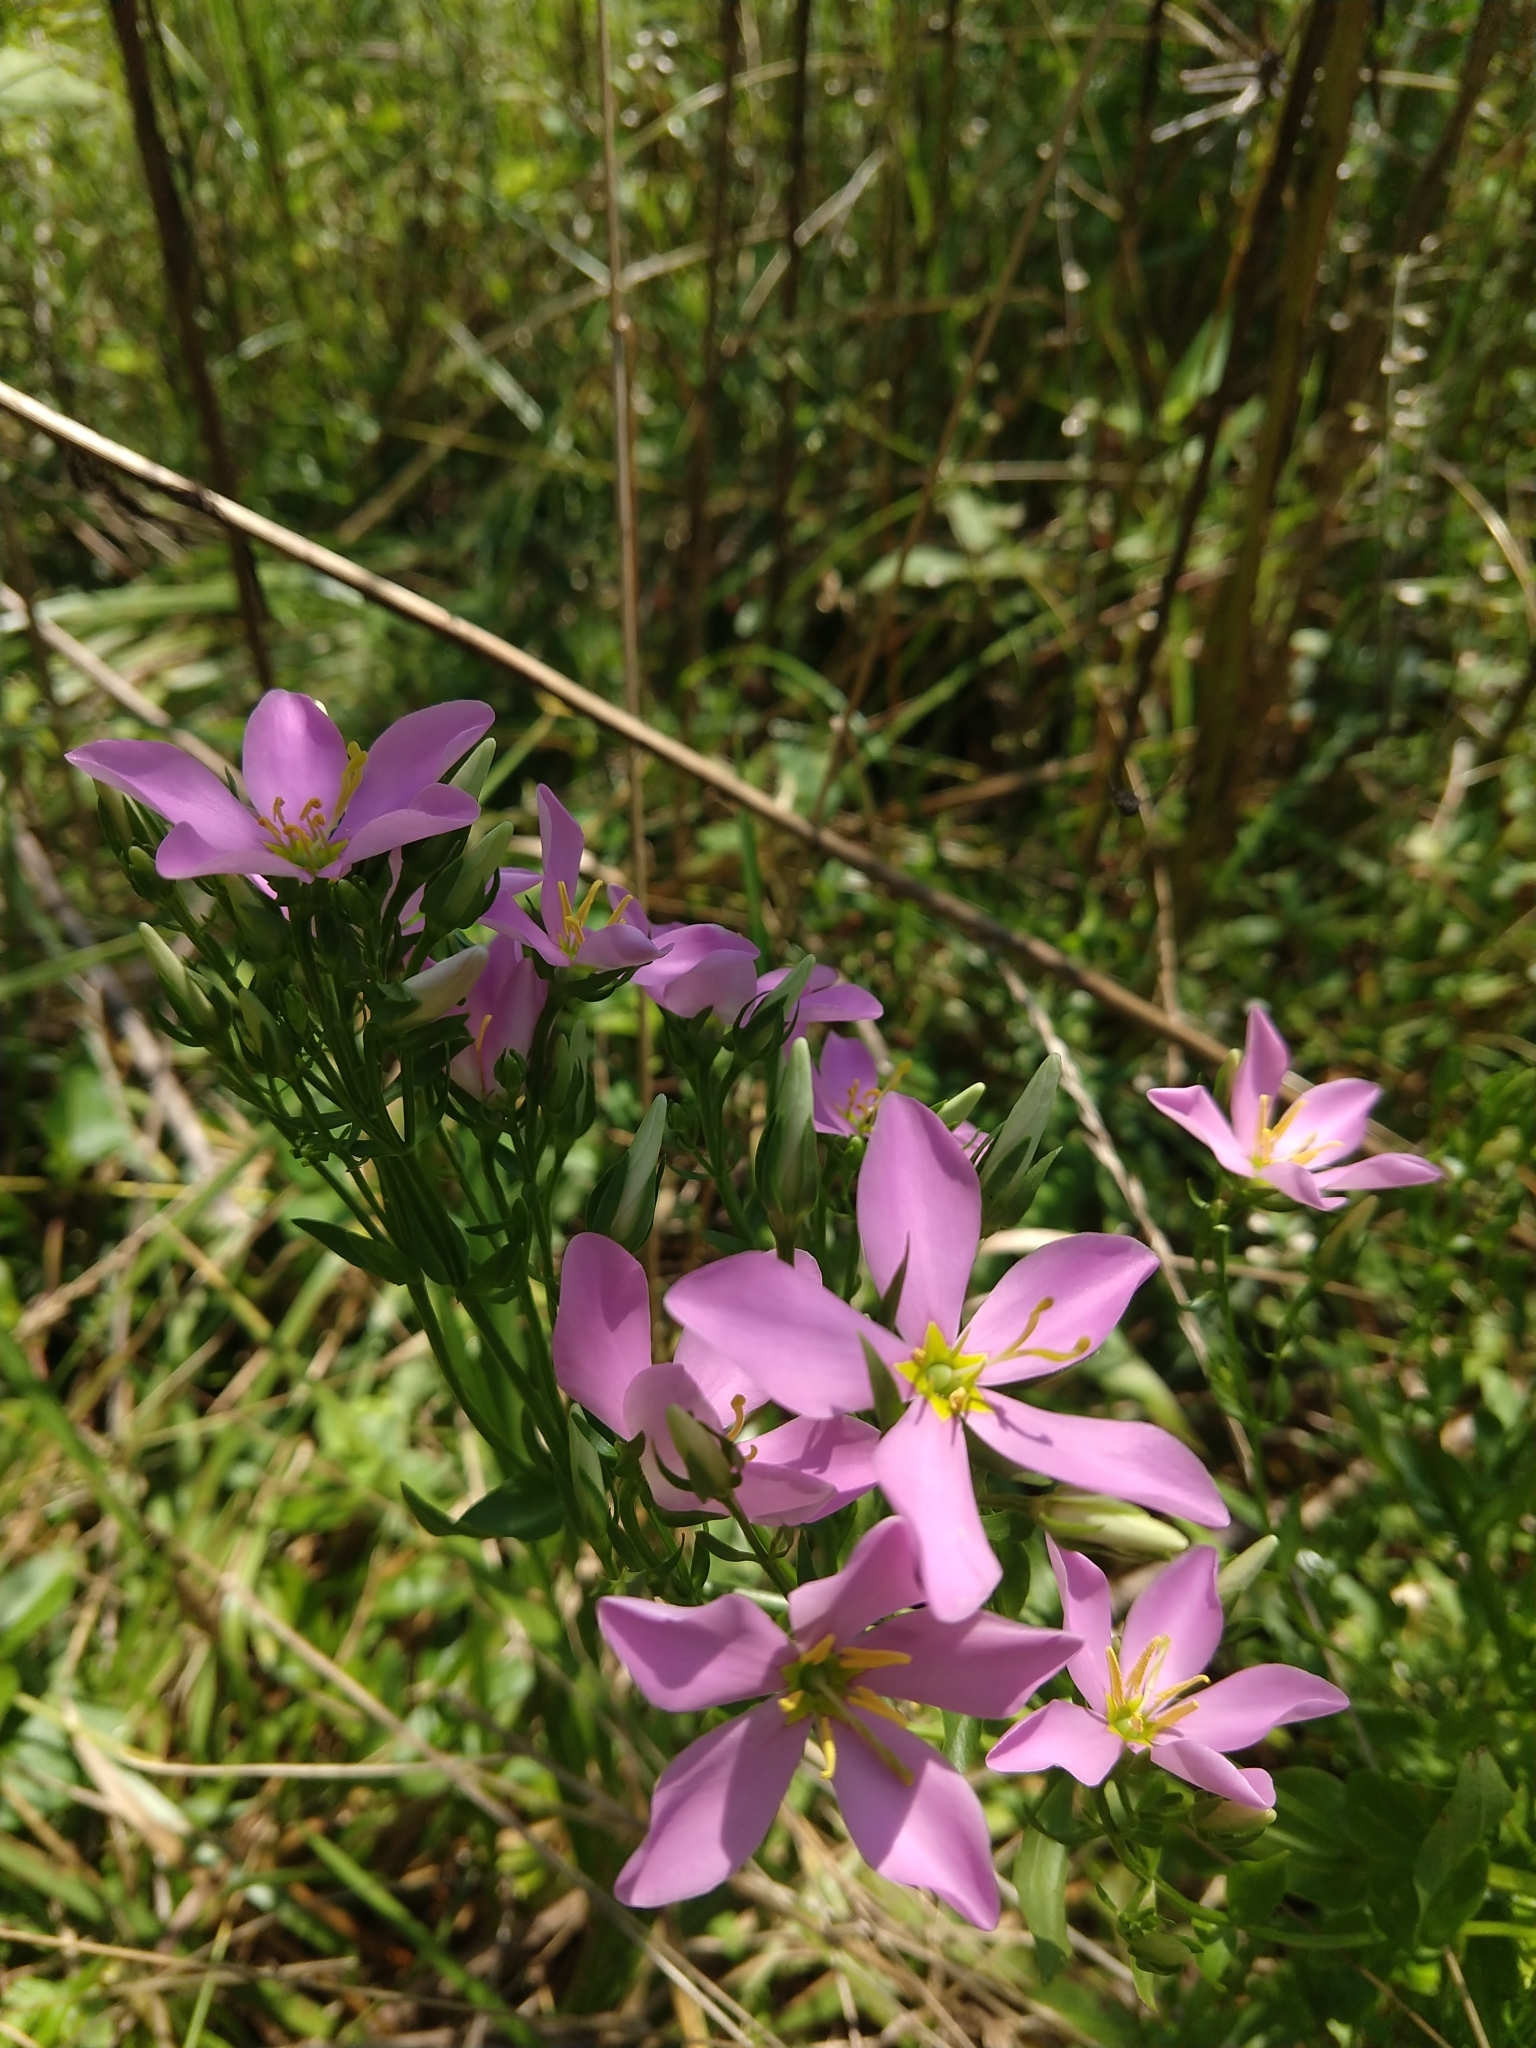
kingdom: Plantae
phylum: Tracheophyta
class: Magnoliopsida
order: Gentianales
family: Gentianaceae
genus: Sabatia
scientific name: Sabatia angularis
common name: Rose-pink
